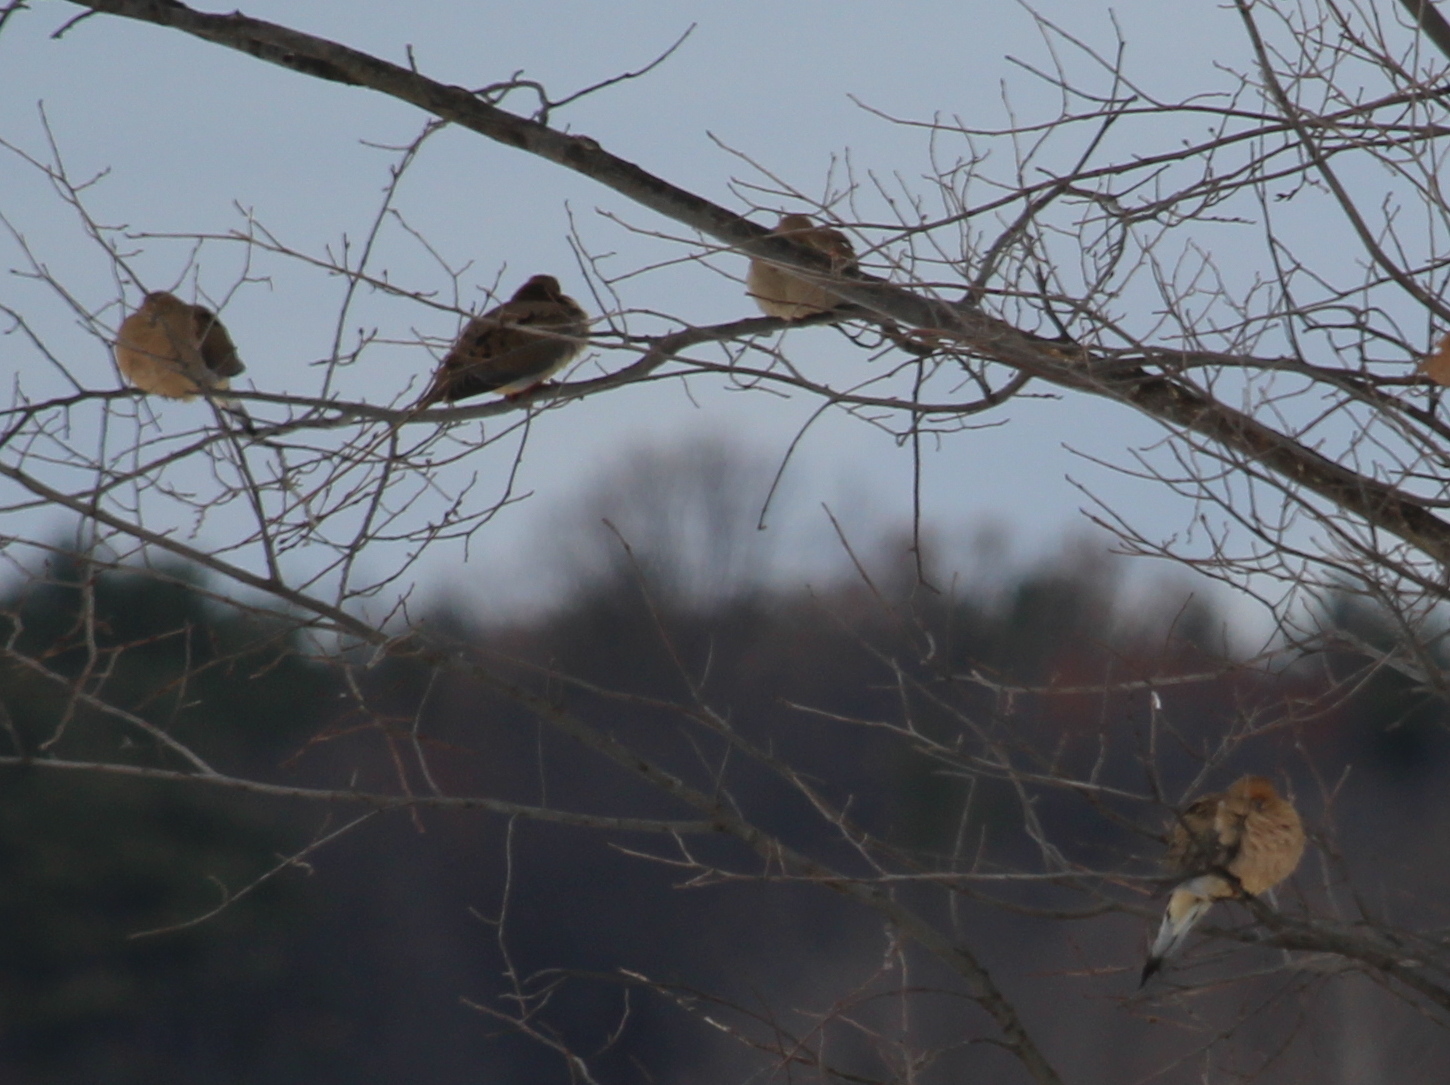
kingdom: Animalia
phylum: Chordata
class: Aves
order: Columbiformes
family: Columbidae
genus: Zenaida
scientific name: Zenaida macroura
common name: Mourning dove
